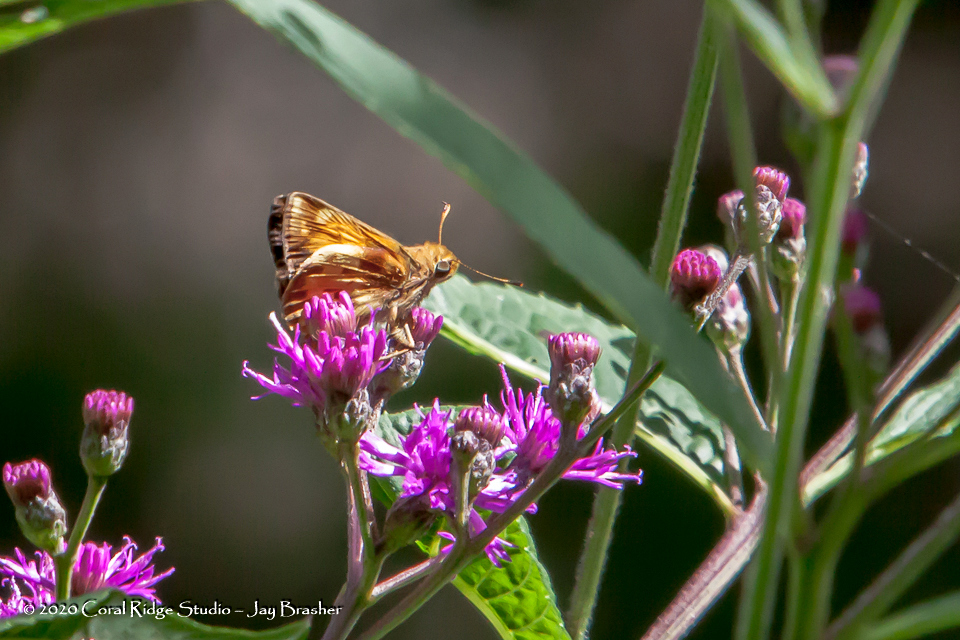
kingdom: Animalia
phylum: Arthropoda
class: Insecta
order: Lepidoptera
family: Hesperiidae
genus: Lon
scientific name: Lon zabulon
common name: Zabulon skipper
